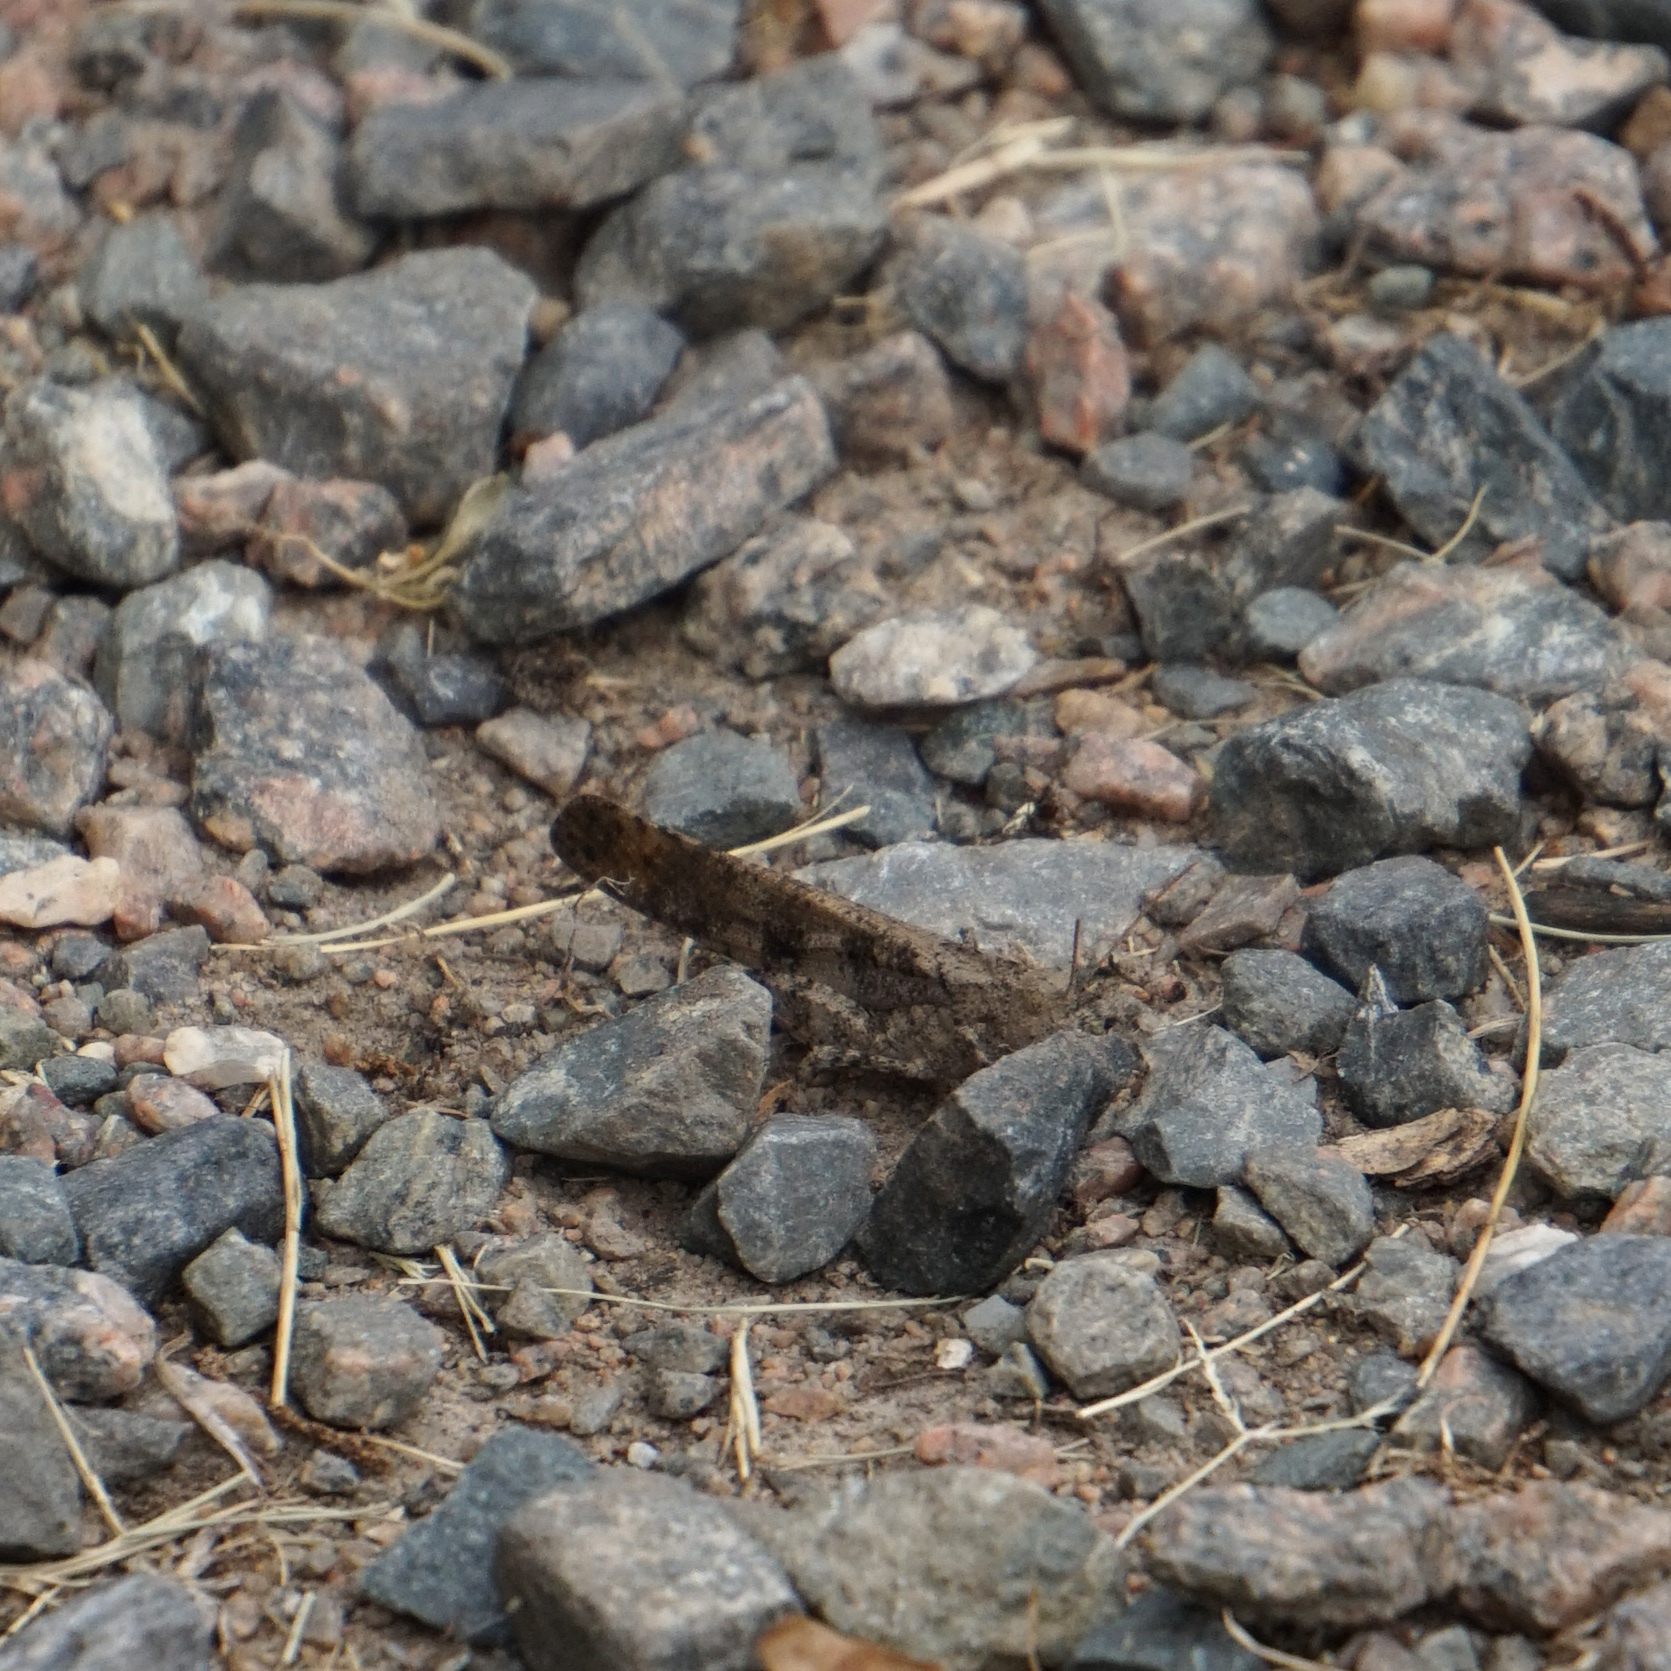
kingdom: Animalia
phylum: Arthropoda
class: Insecta
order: Orthoptera
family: Acrididae
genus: Dissosteira
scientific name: Dissosteira carolina
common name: Carolina grasshopper
